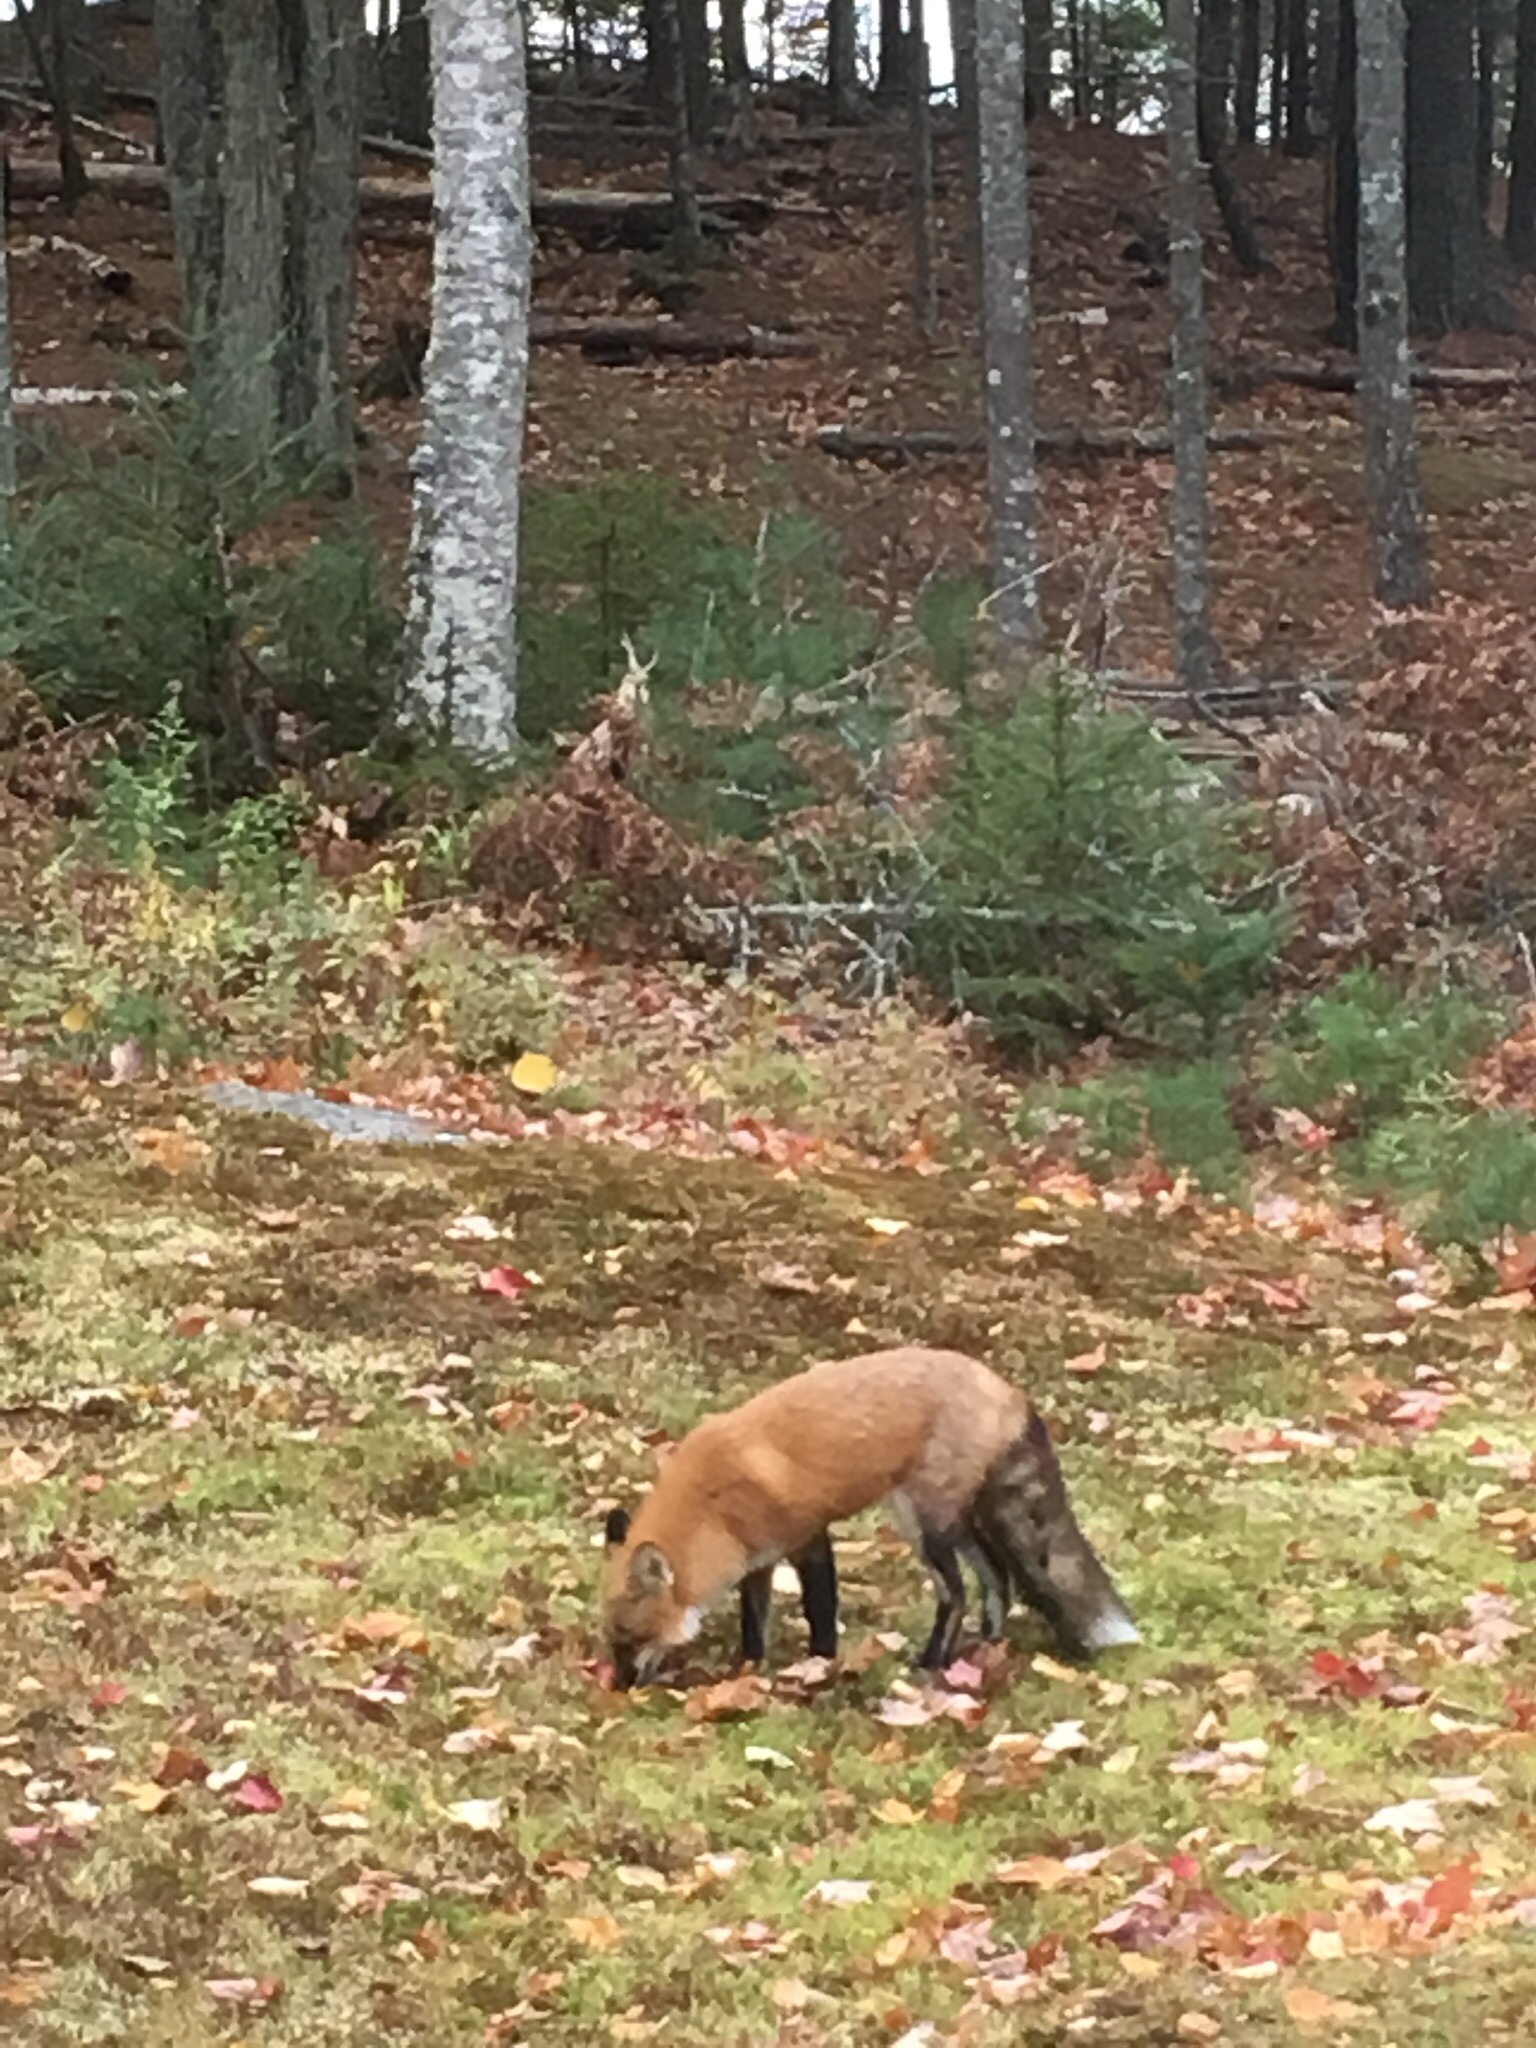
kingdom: Animalia
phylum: Chordata
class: Mammalia
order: Carnivora
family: Canidae
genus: Vulpes
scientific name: Vulpes vulpes
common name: Red fox
